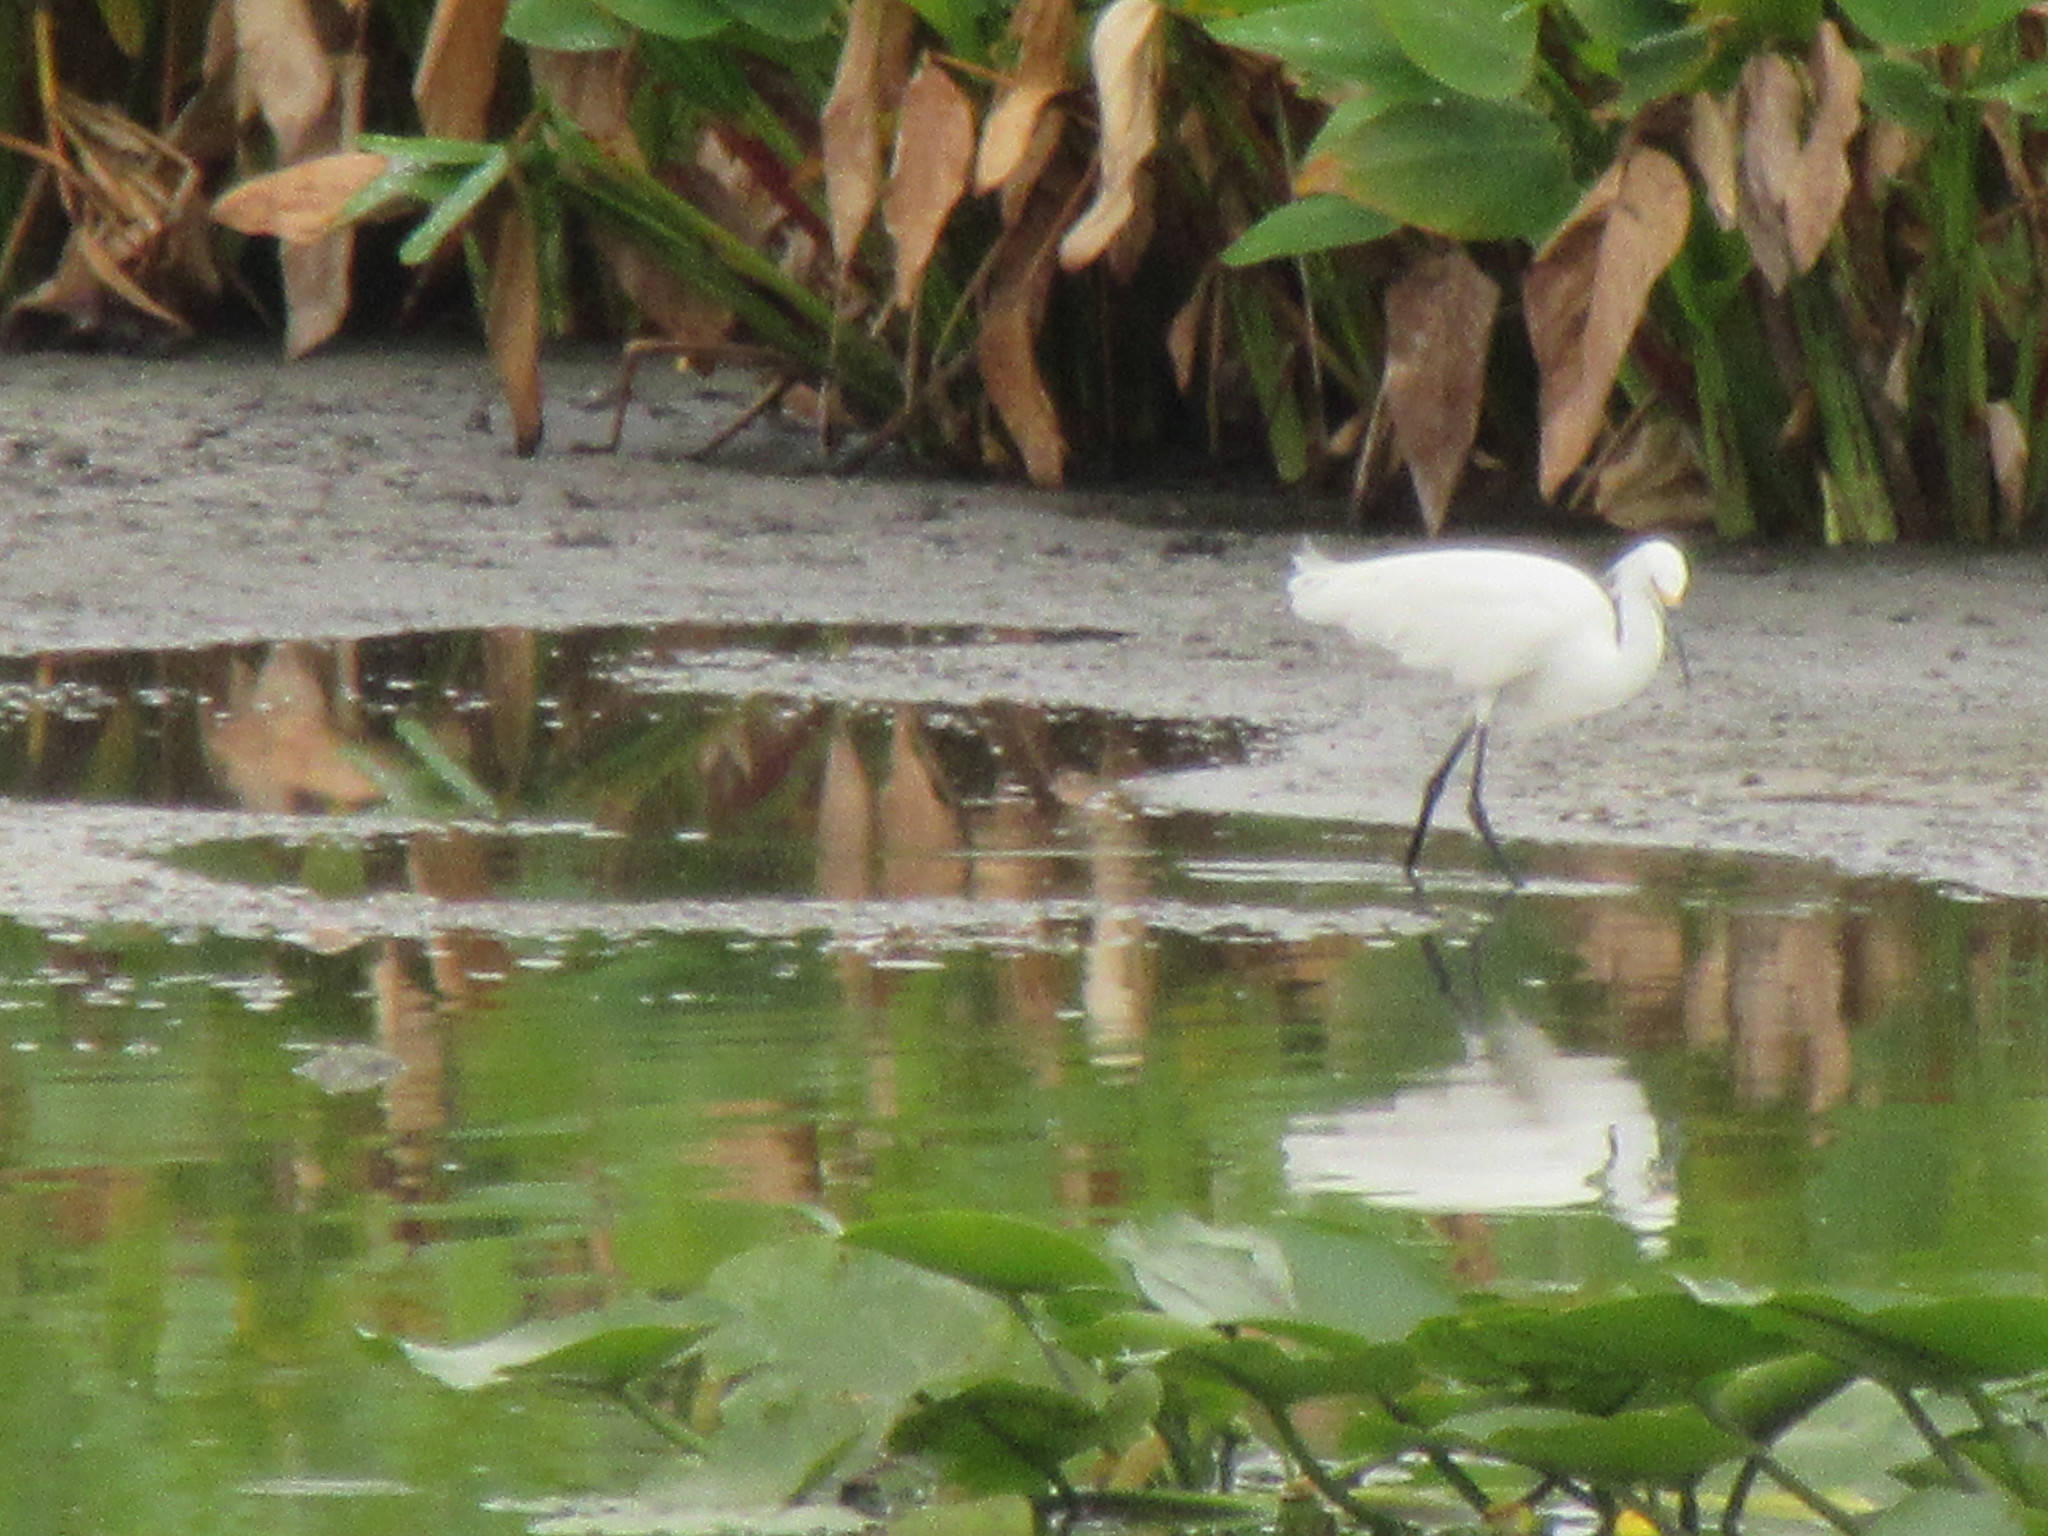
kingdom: Animalia
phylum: Chordata
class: Aves
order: Pelecaniformes
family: Ardeidae
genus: Egretta
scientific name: Egretta thula
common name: Snowy egret
